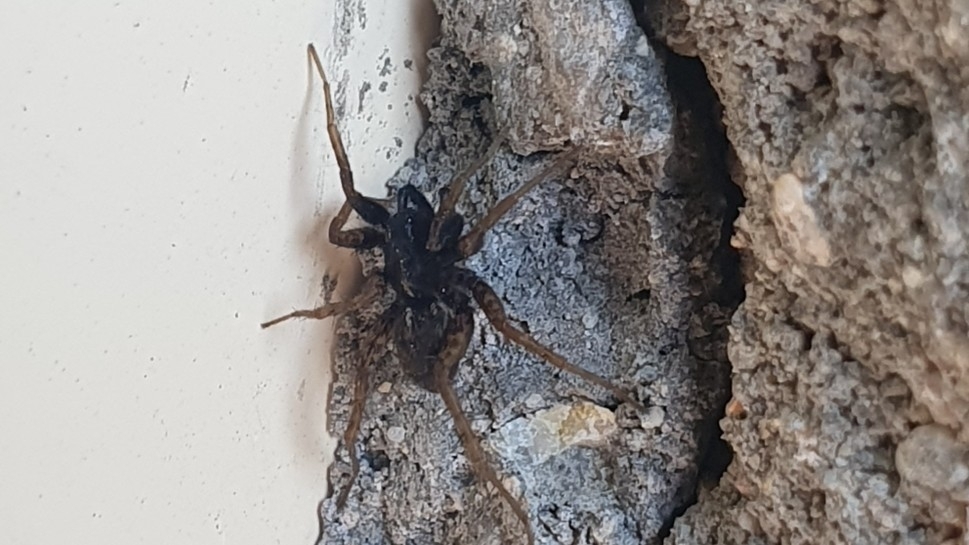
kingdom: Animalia
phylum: Arthropoda
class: Arachnida
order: Araneae
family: Lycosidae
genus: Pardosa
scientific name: Pardosa
